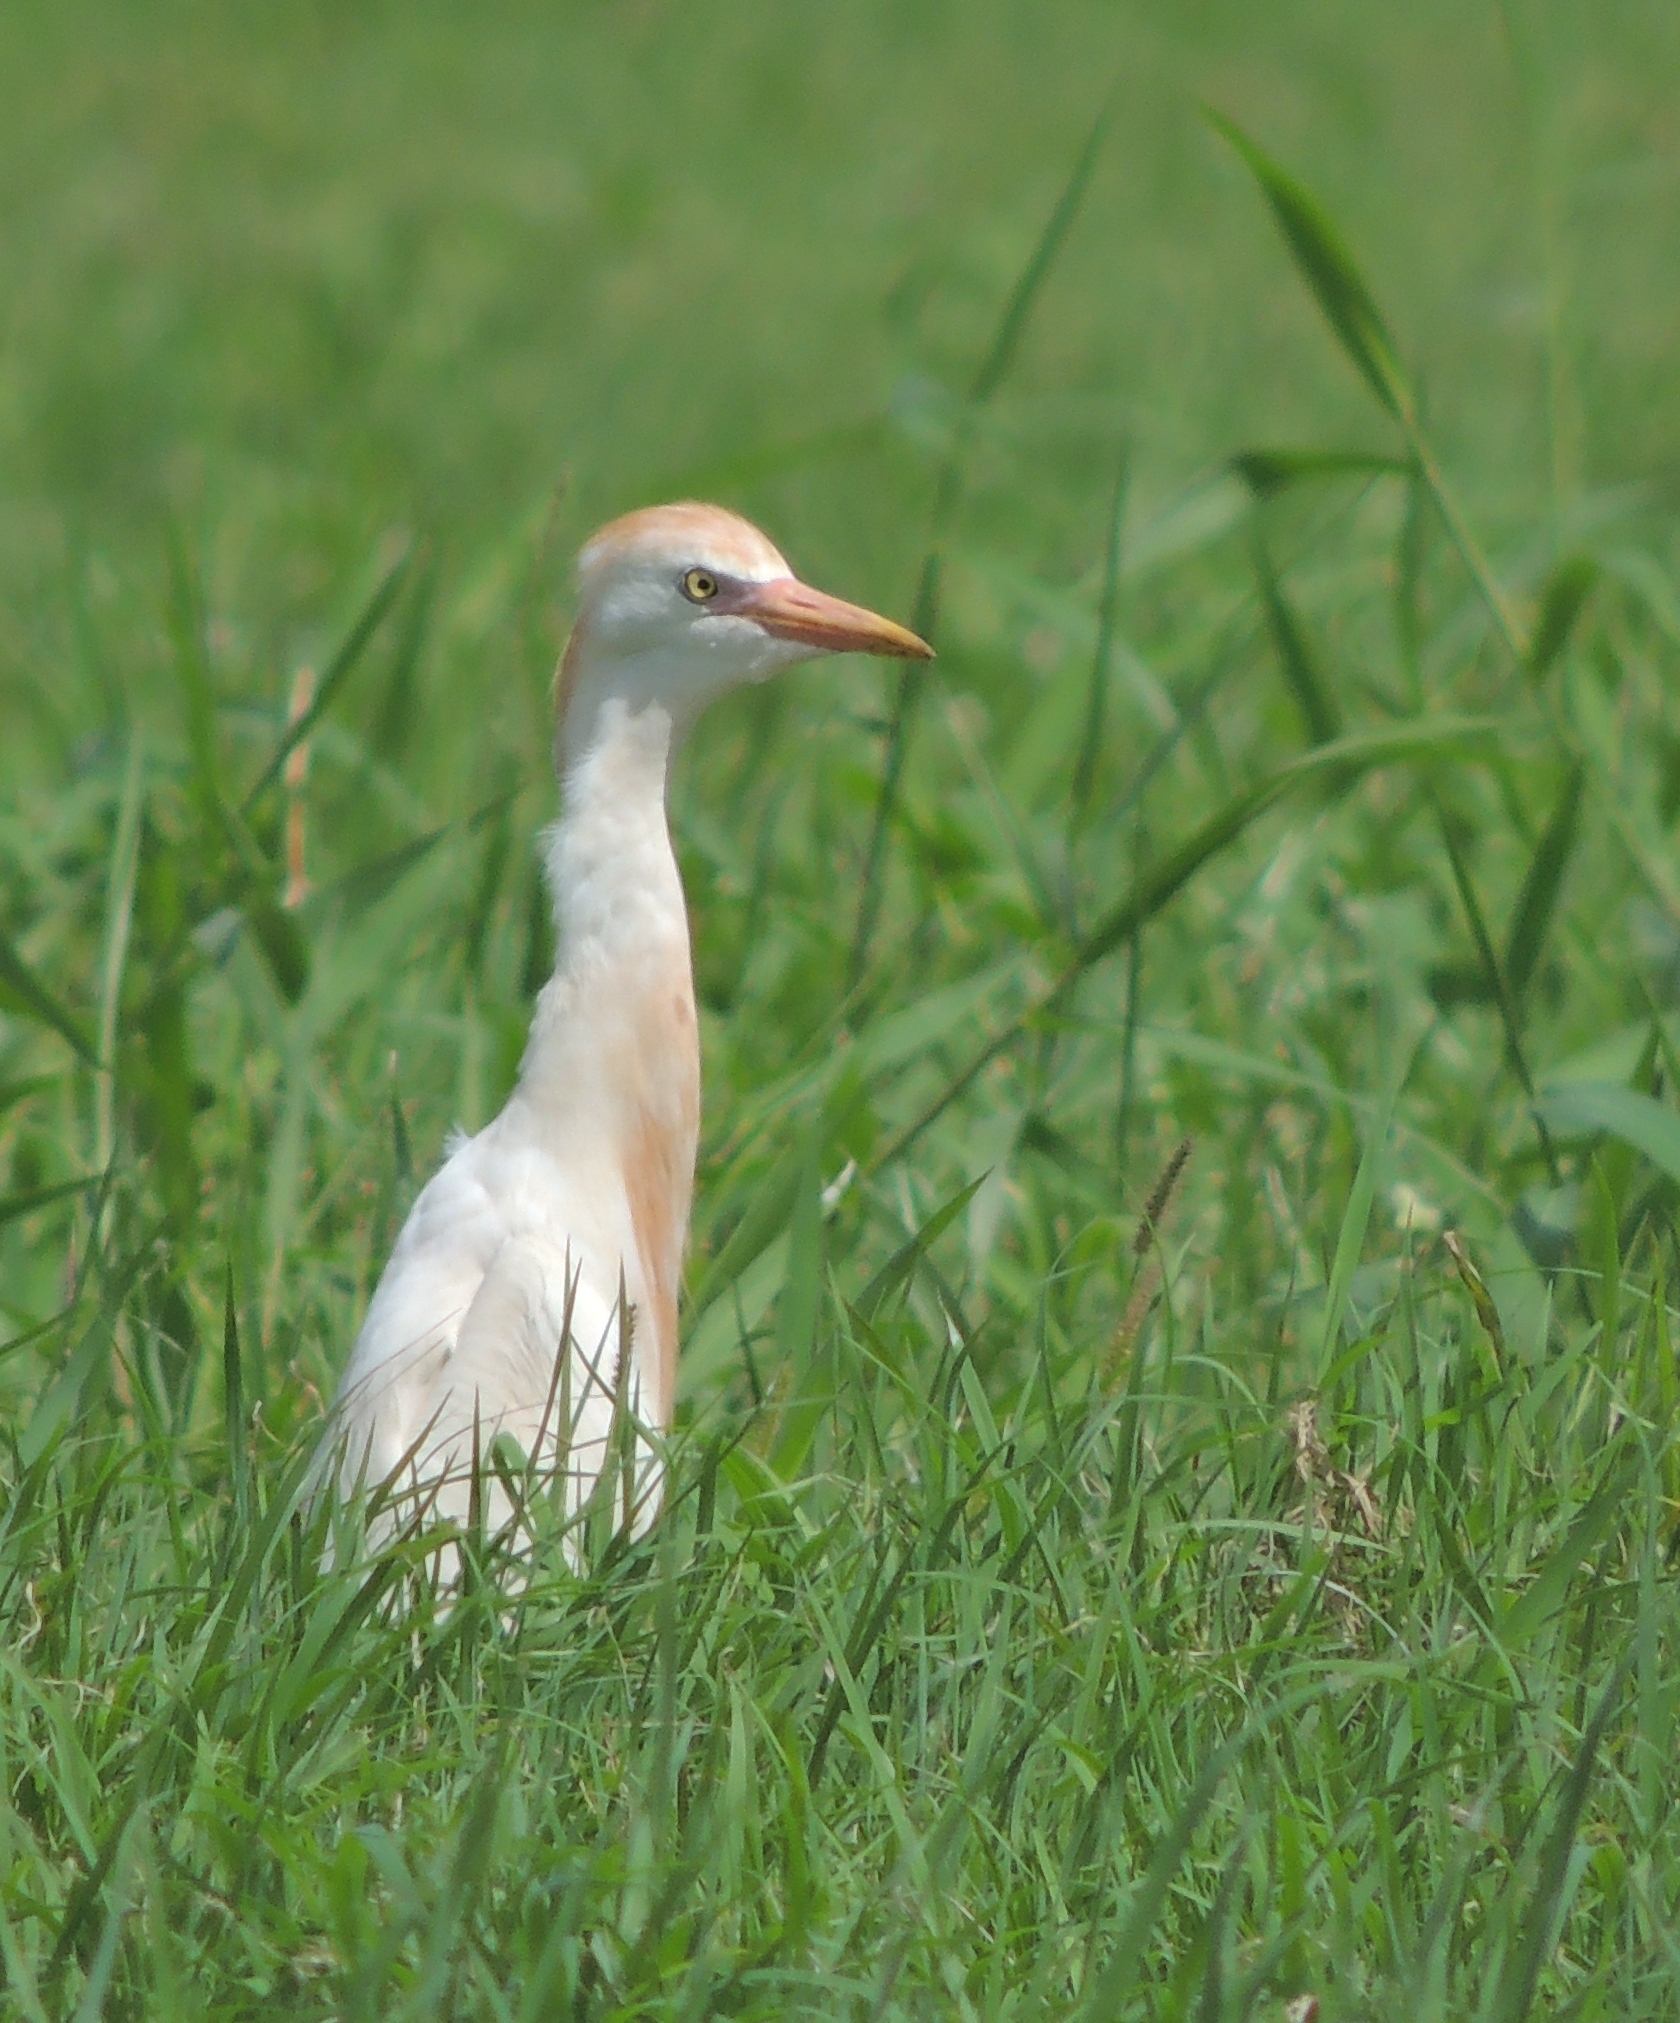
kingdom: Animalia
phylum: Chordata
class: Aves
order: Pelecaniformes
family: Ardeidae
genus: Bubulcus
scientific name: Bubulcus ibis
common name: Cattle egret
